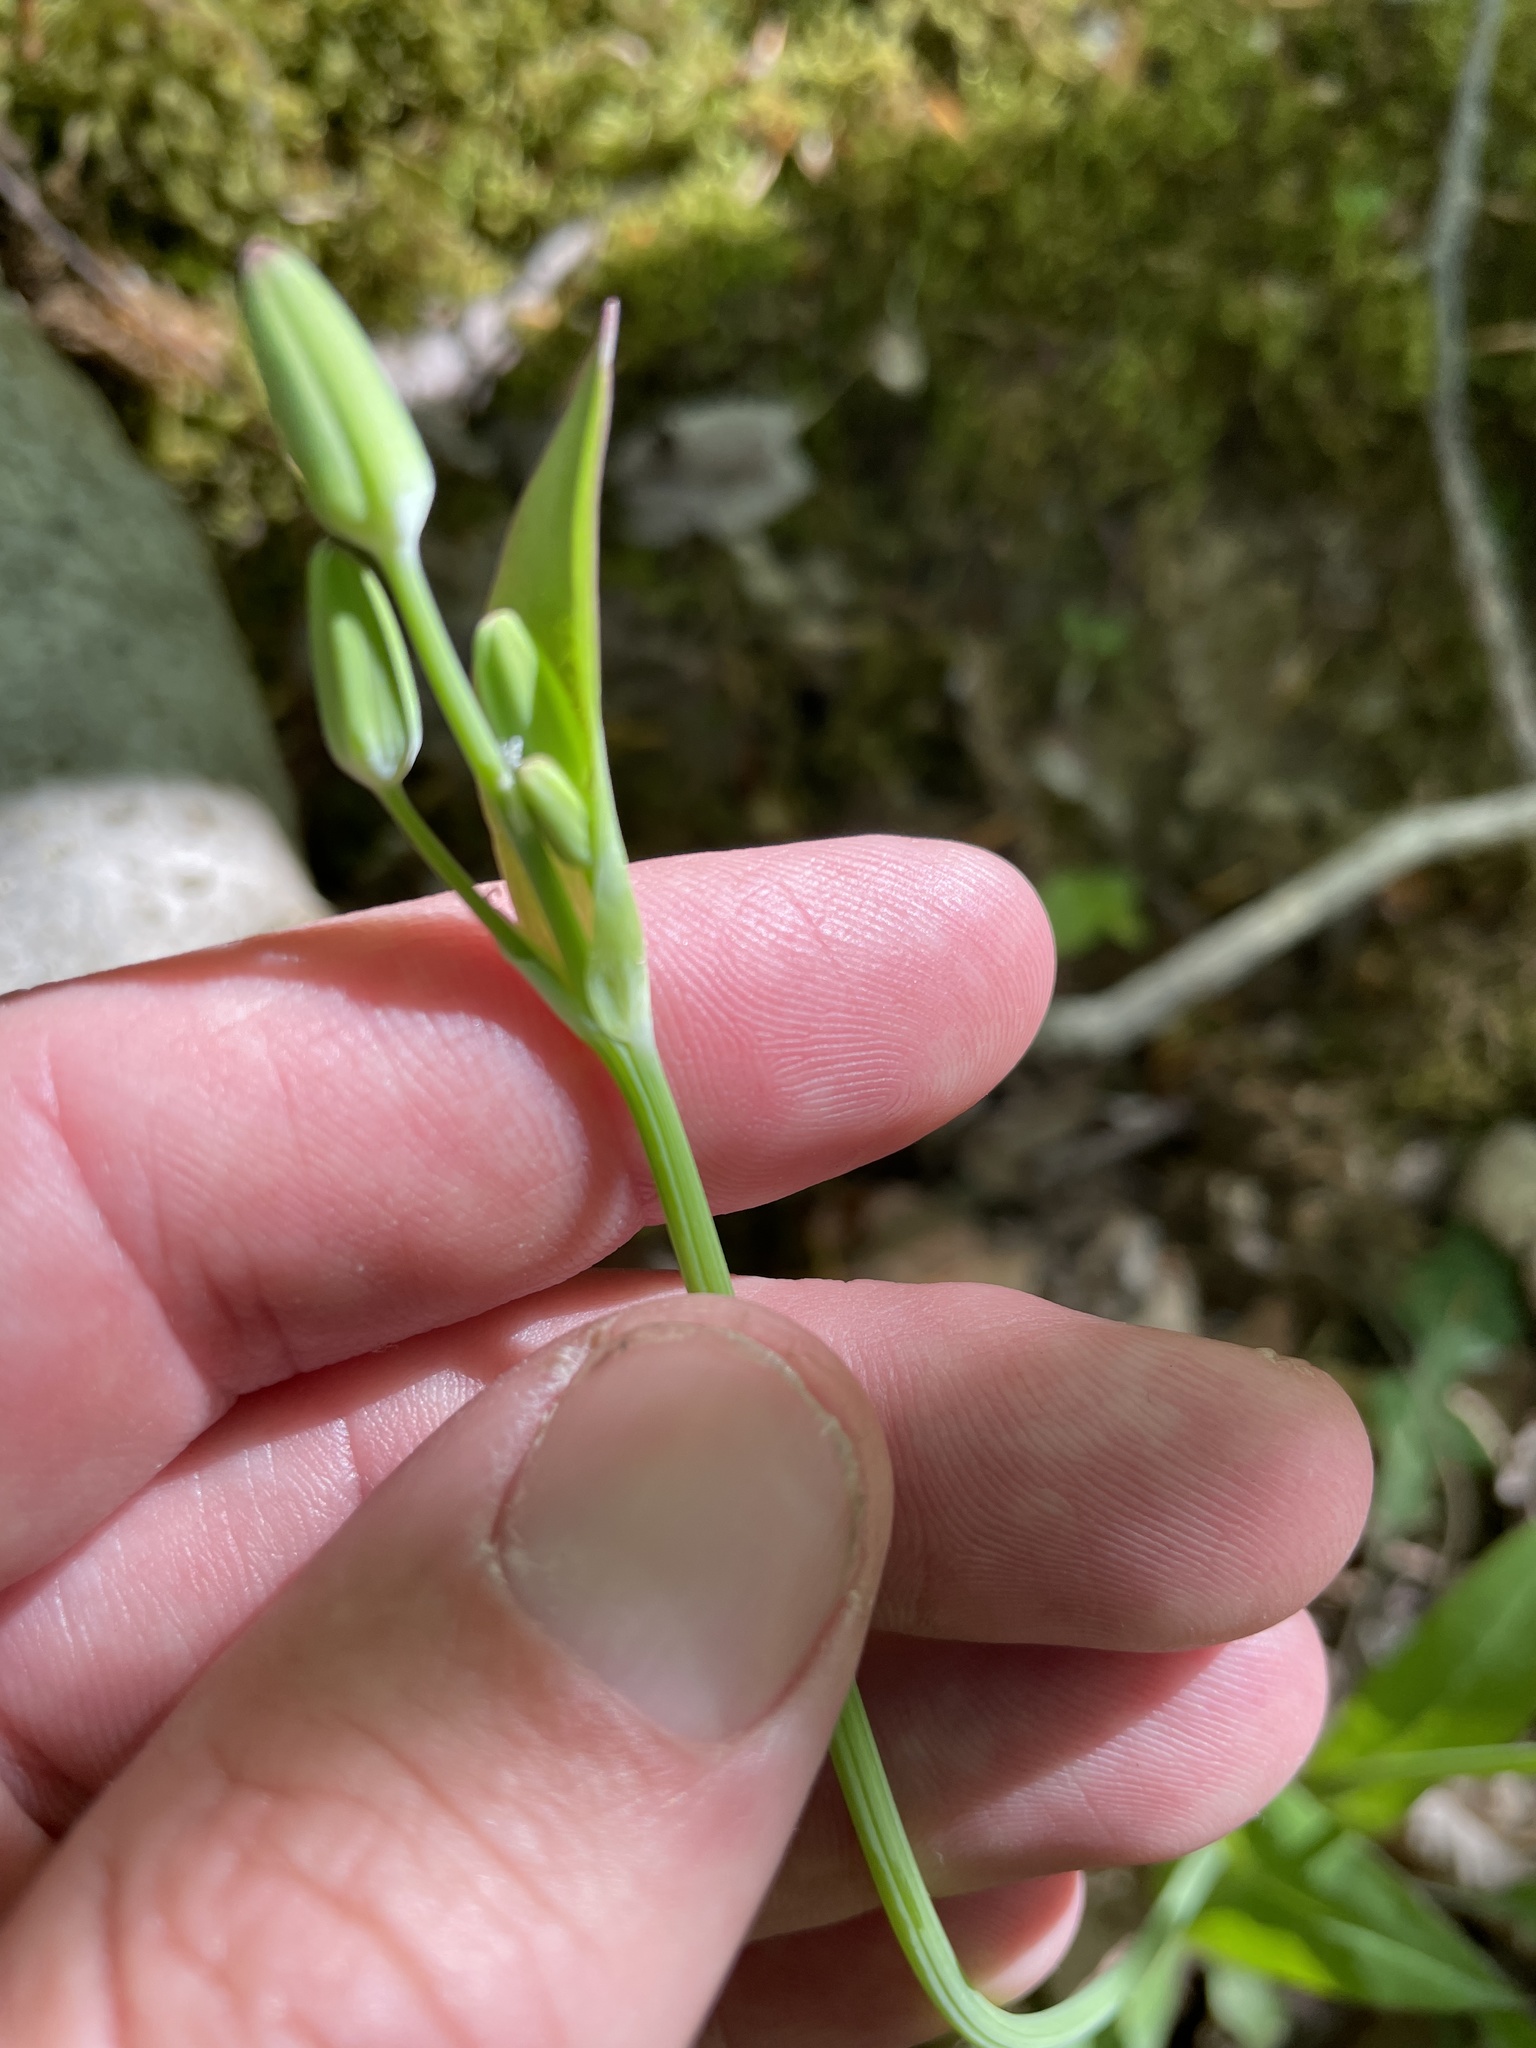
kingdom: Plantae
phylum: Tracheophyta
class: Magnoliopsida
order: Asterales
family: Asteraceae
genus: Krigia
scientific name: Krigia biflora
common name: Orange dwarf-dandelion
